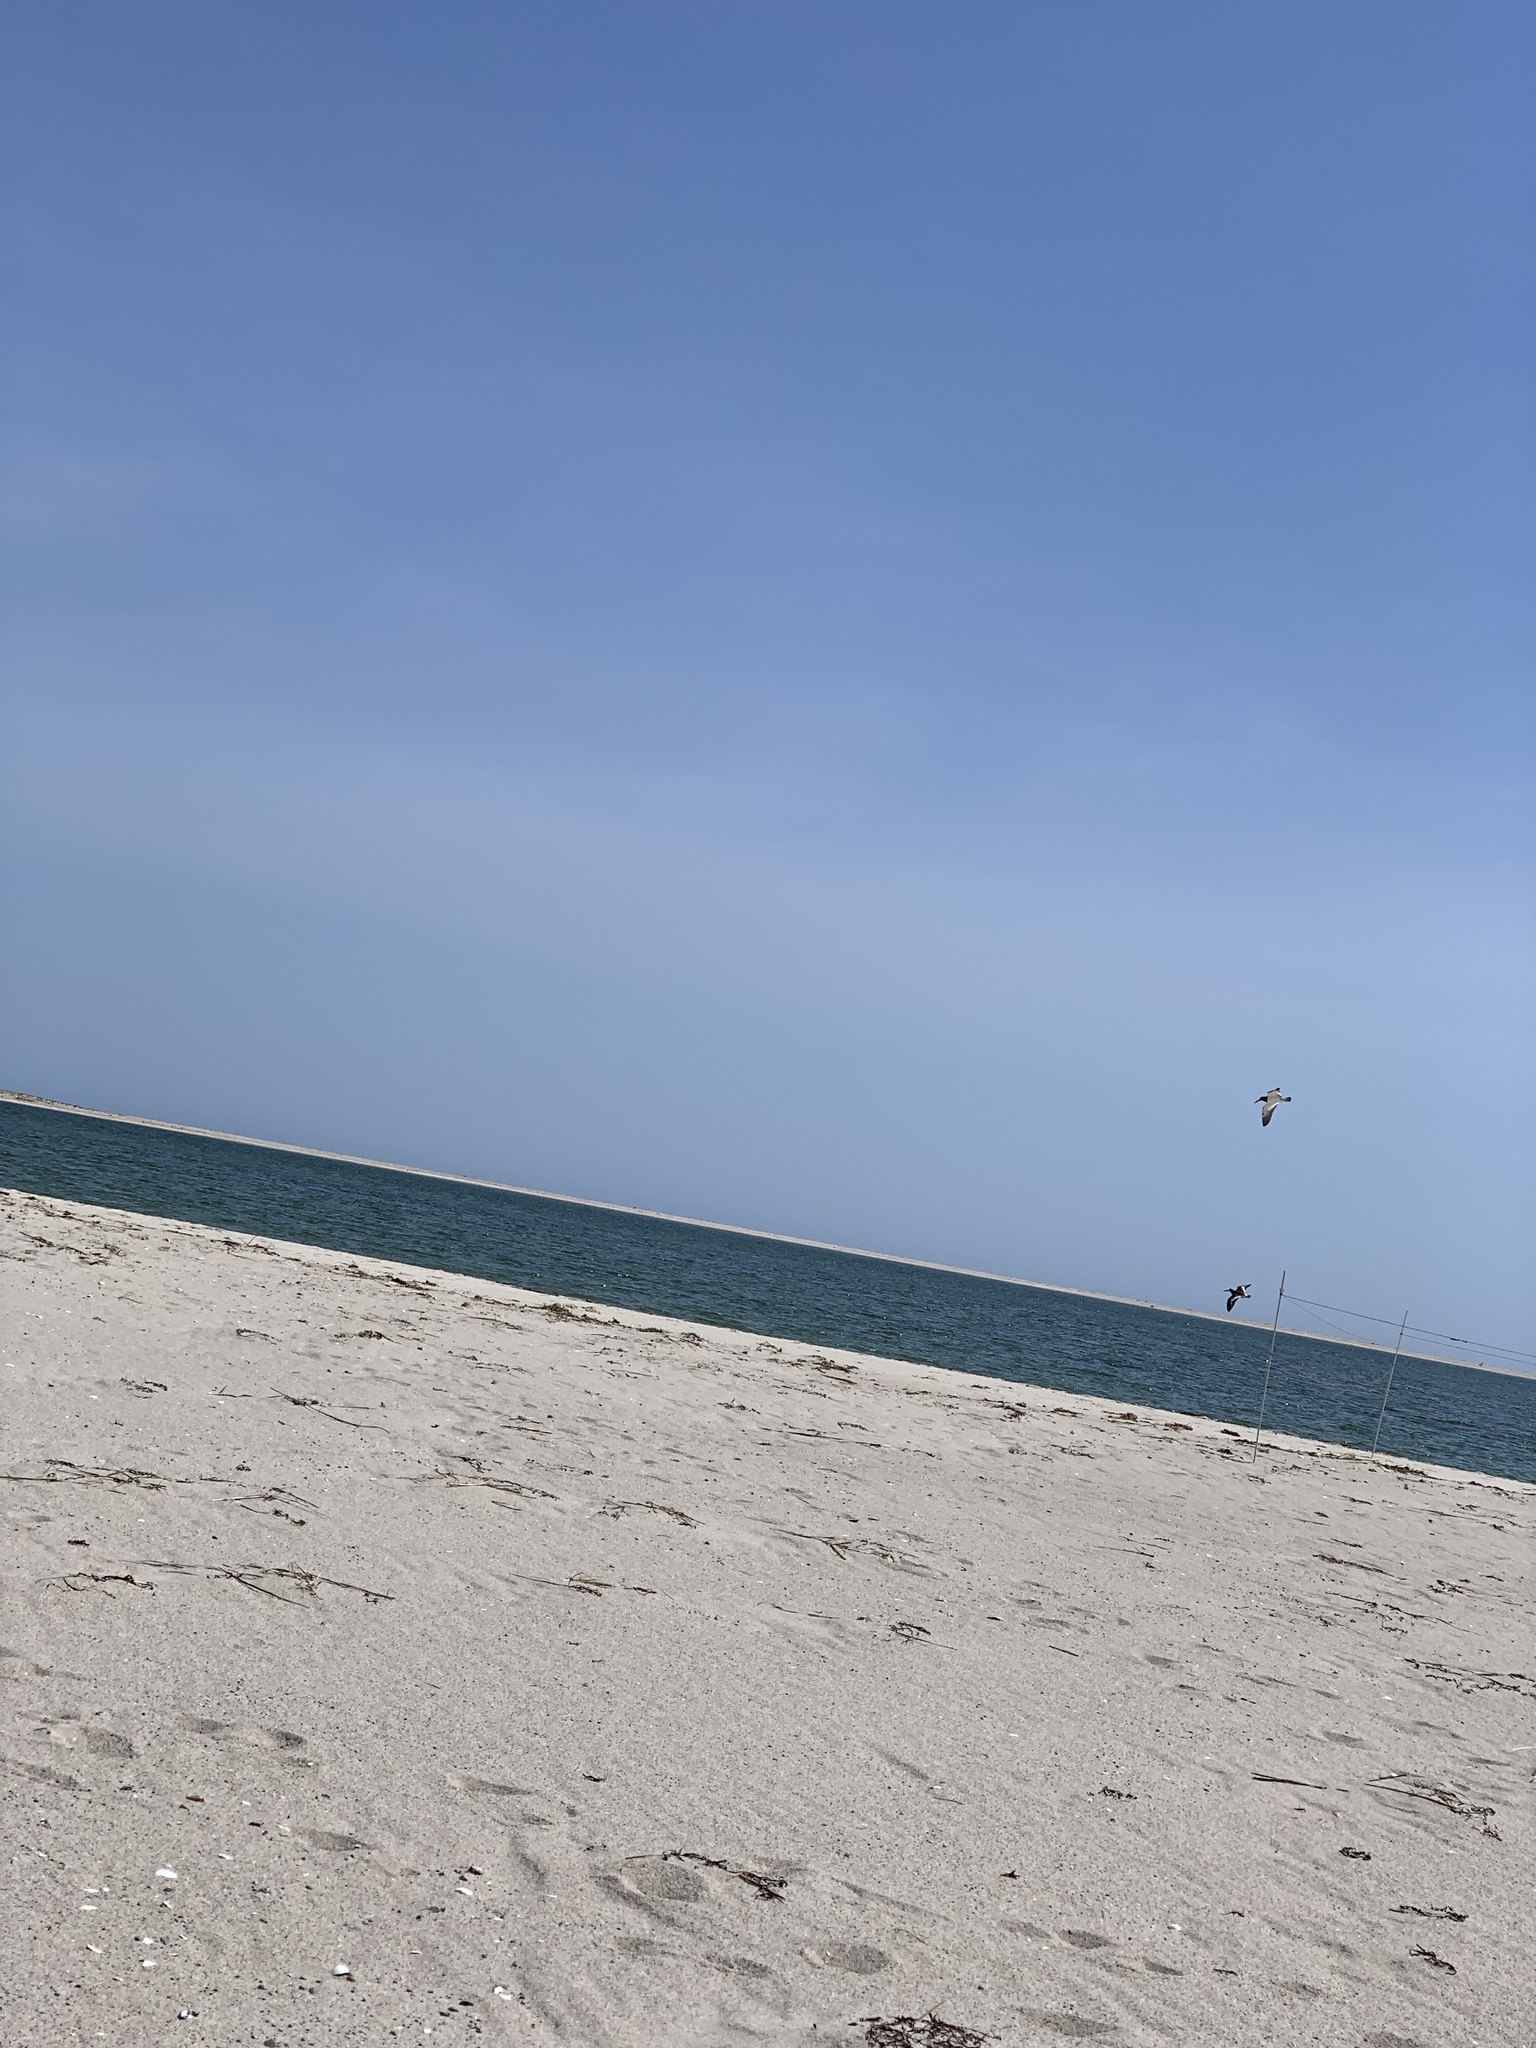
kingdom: Animalia
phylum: Chordata
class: Aves
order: Charadriiformes
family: Haematopodidae
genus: Haematopus
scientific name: Haematopus palliatus
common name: American oystercatcher
